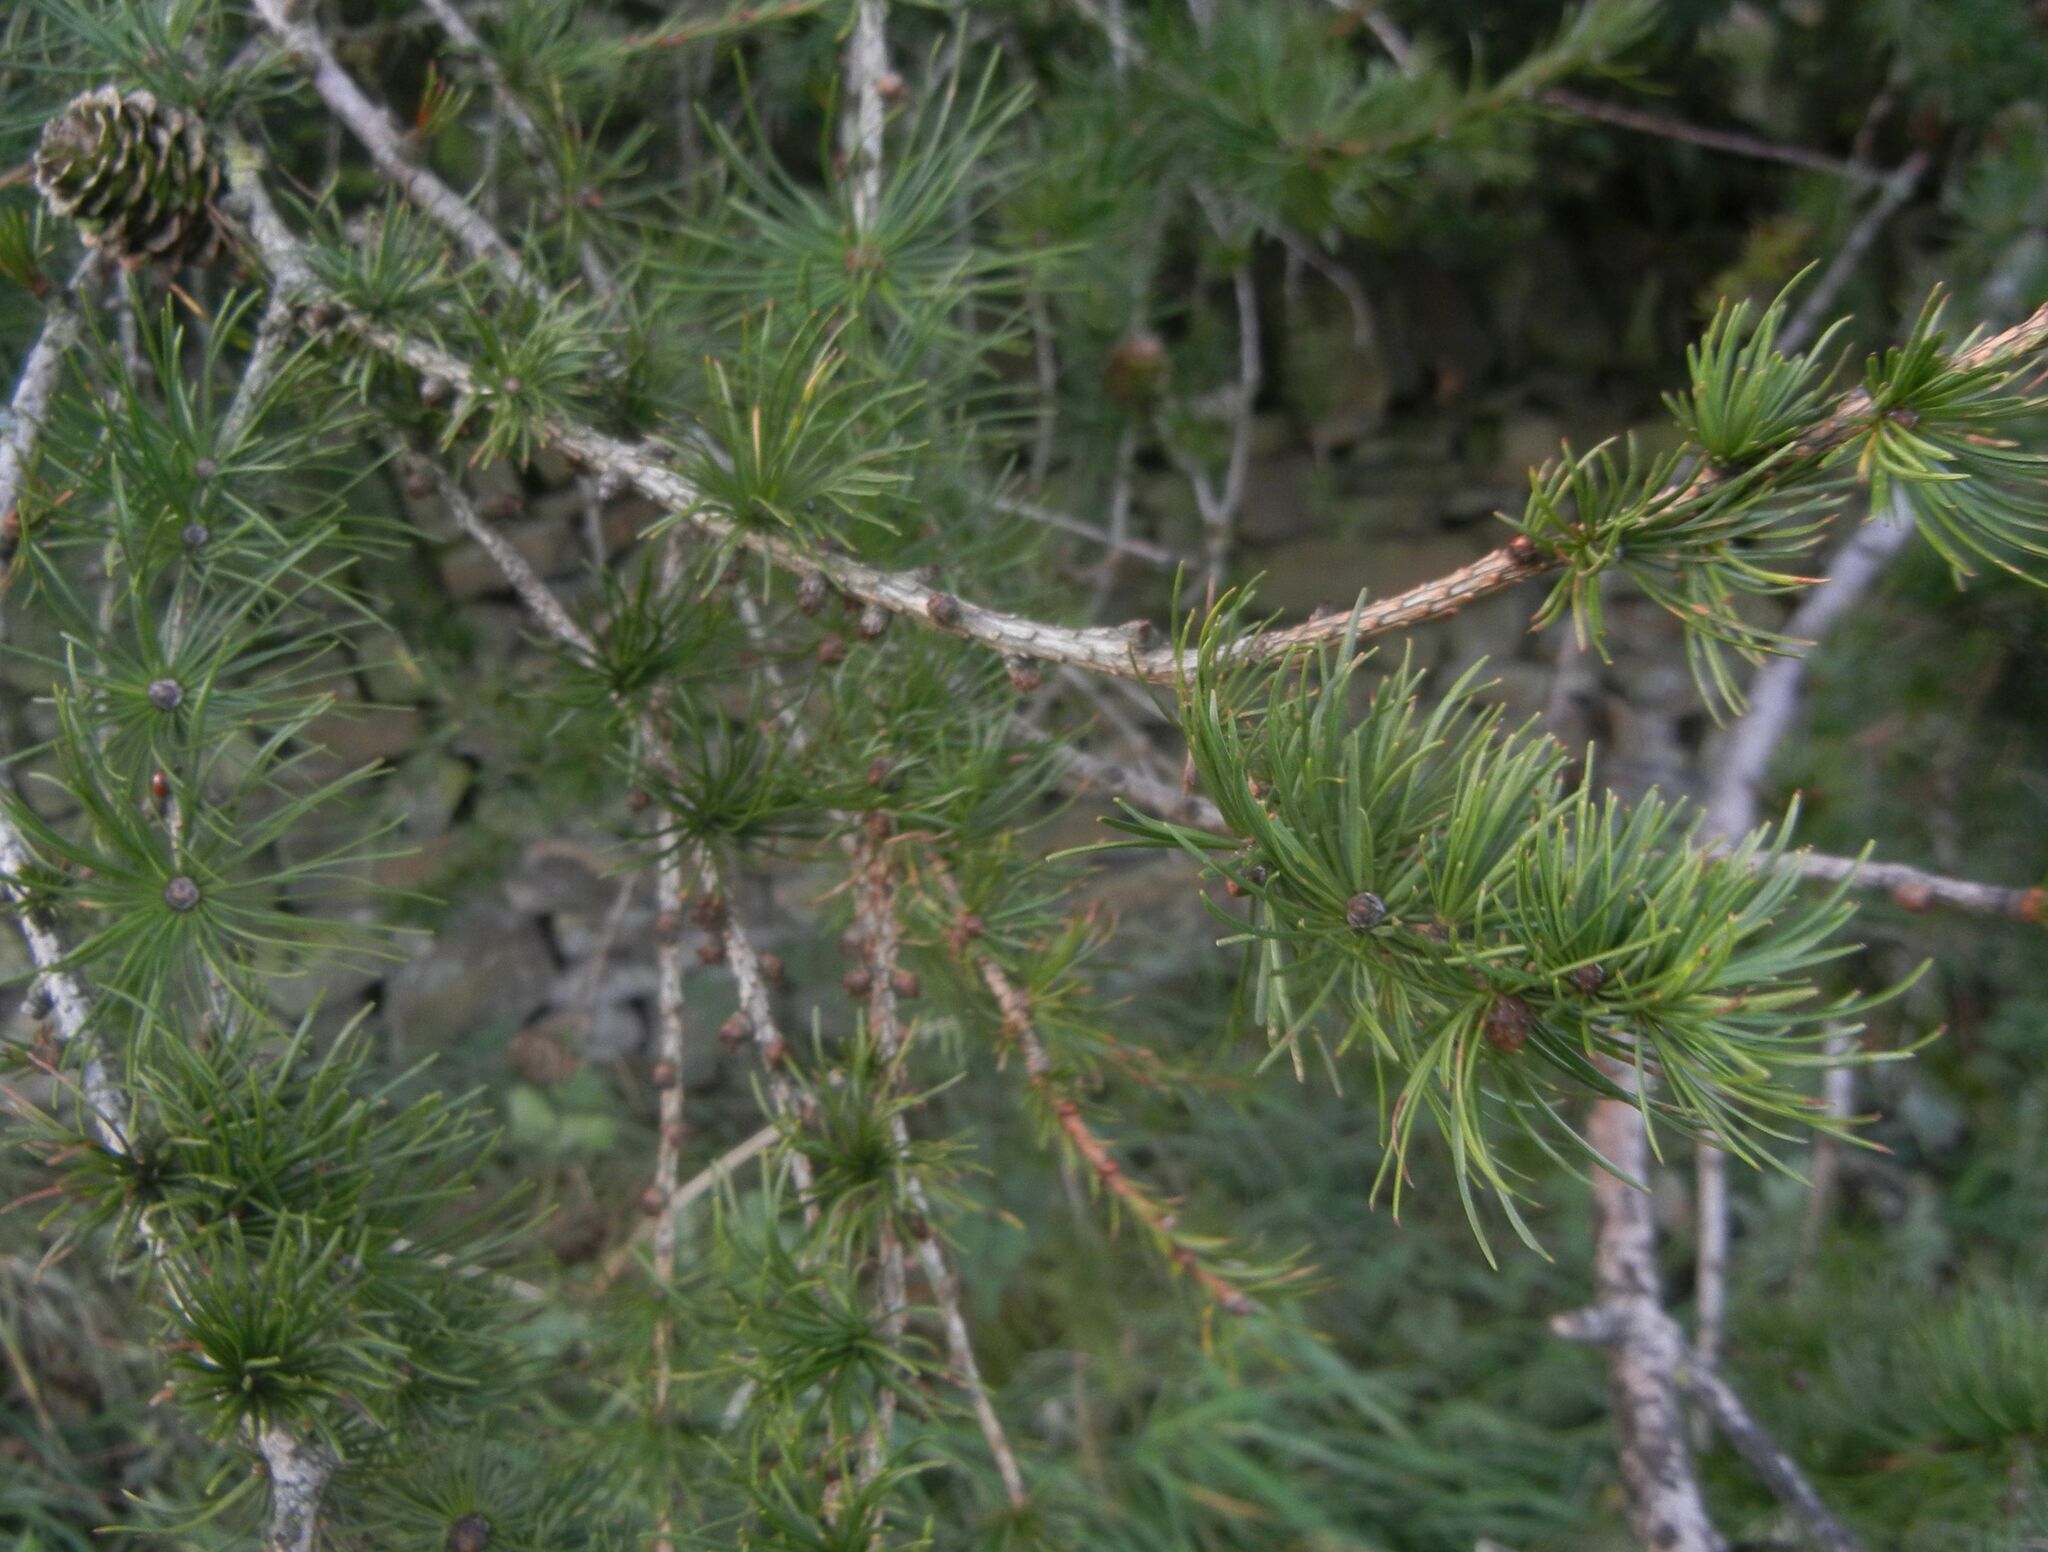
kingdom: Plantae
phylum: Tracheophyta
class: Pinopsida
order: Pinales
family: Pinaceae
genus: Larix
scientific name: Larix decidua
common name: European larch
